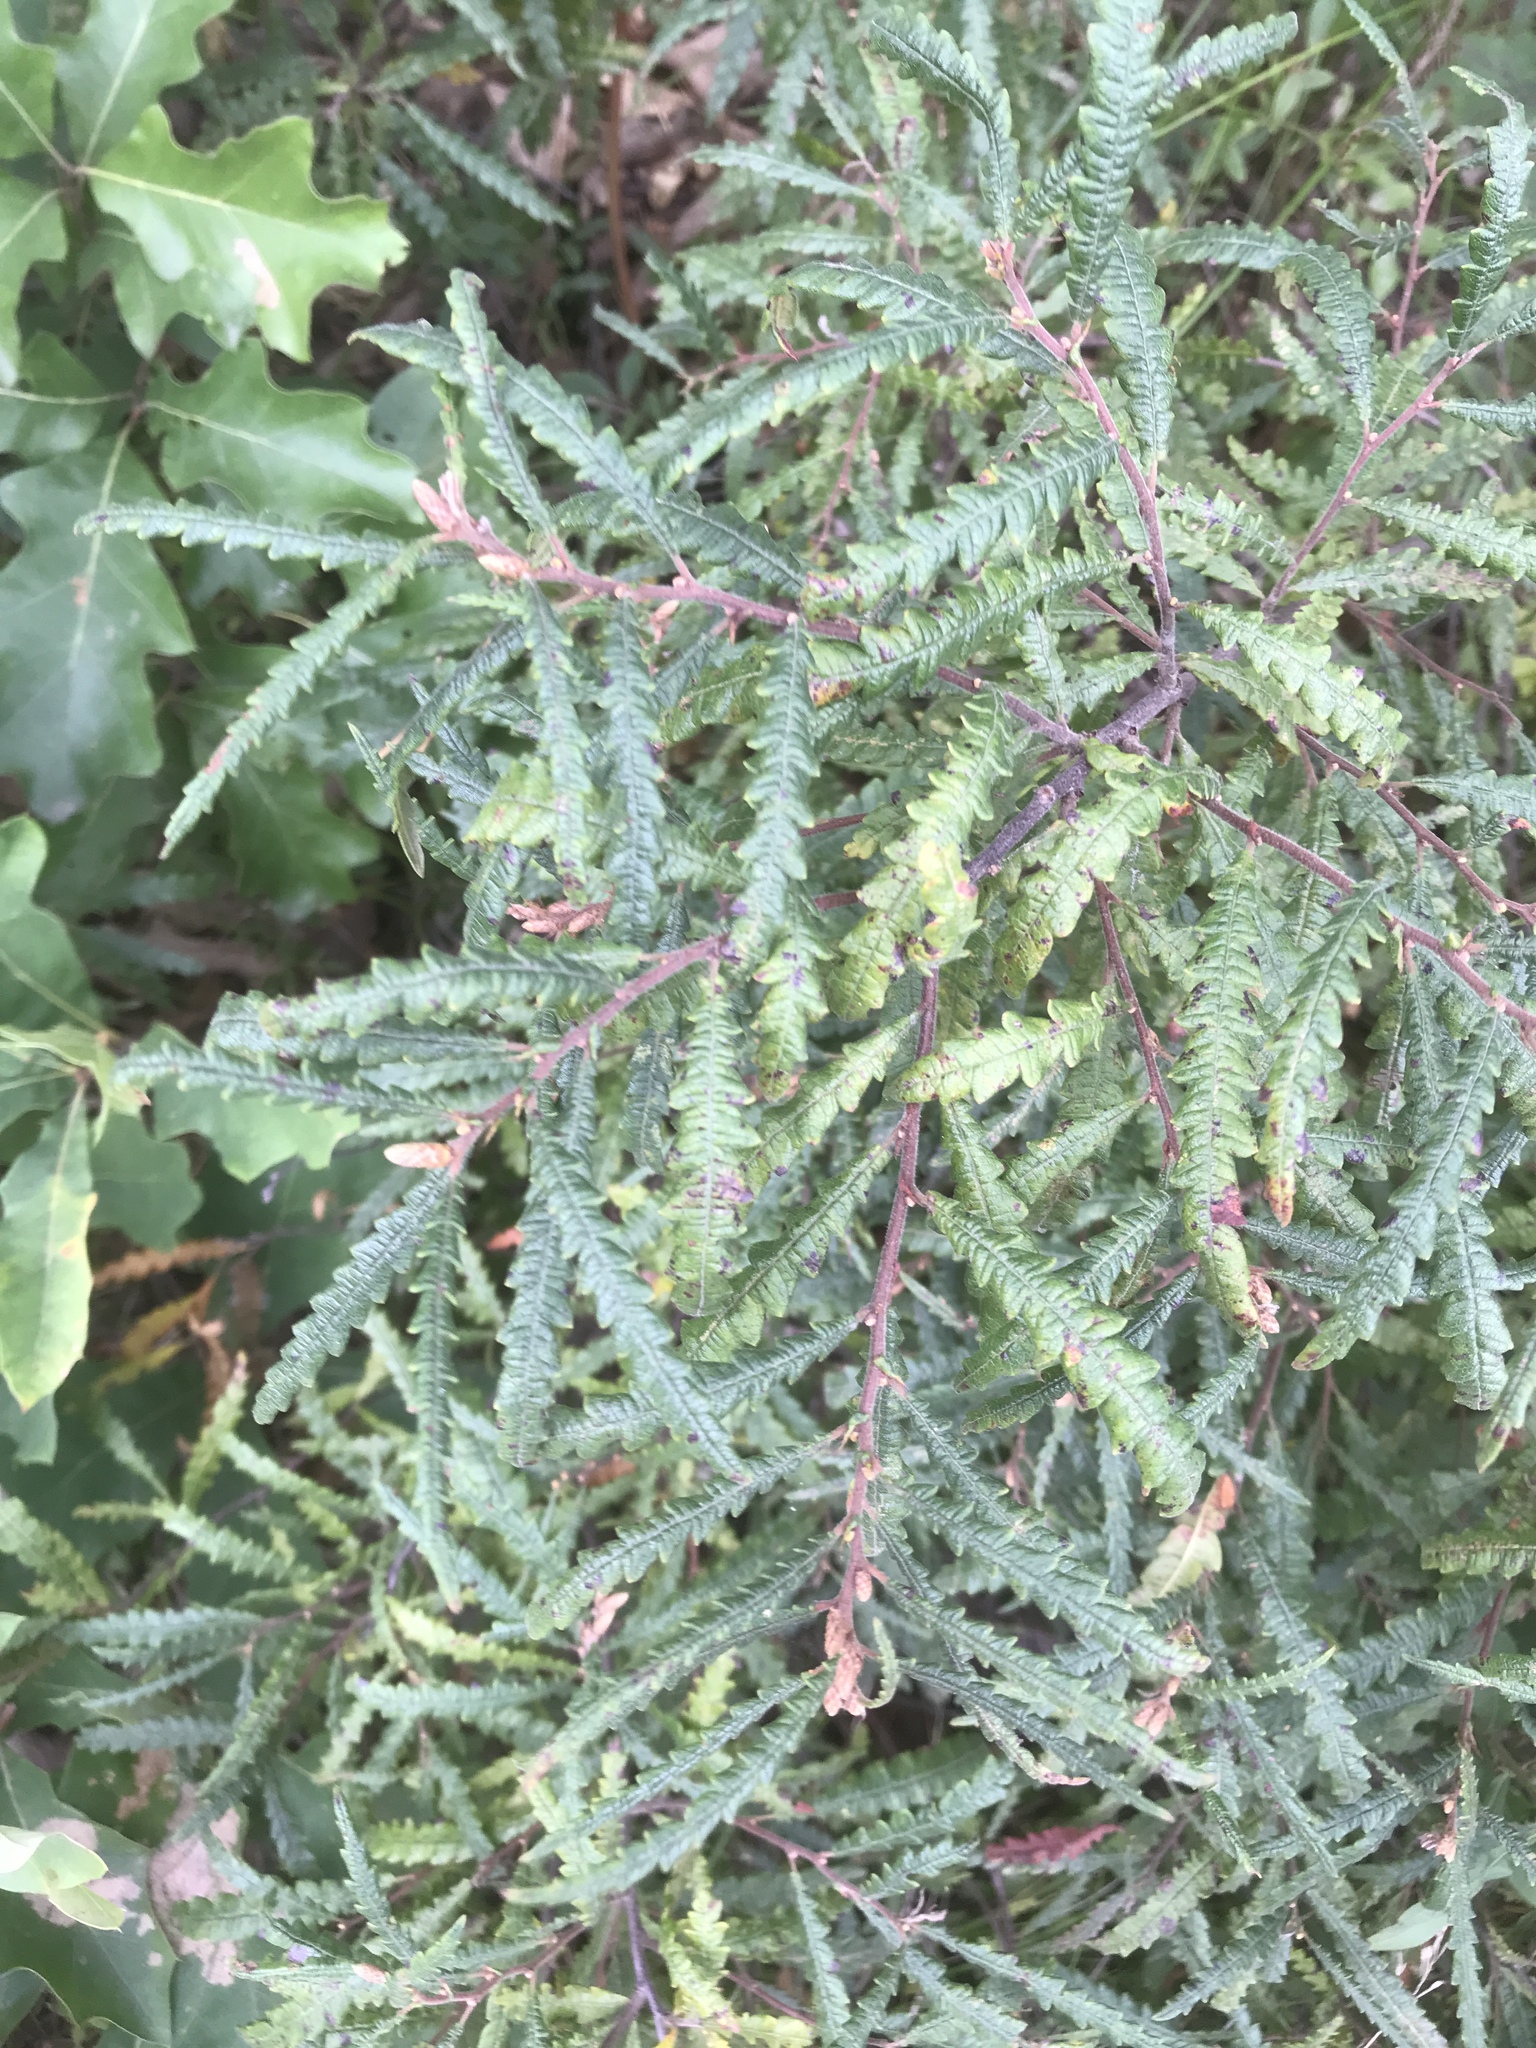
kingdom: Plantae
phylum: Tracheophyta
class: Magnoliopsida
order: Fagales
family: Myricaceae
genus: Comptonia
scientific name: Comptonia peregrina
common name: Sweet-fern
